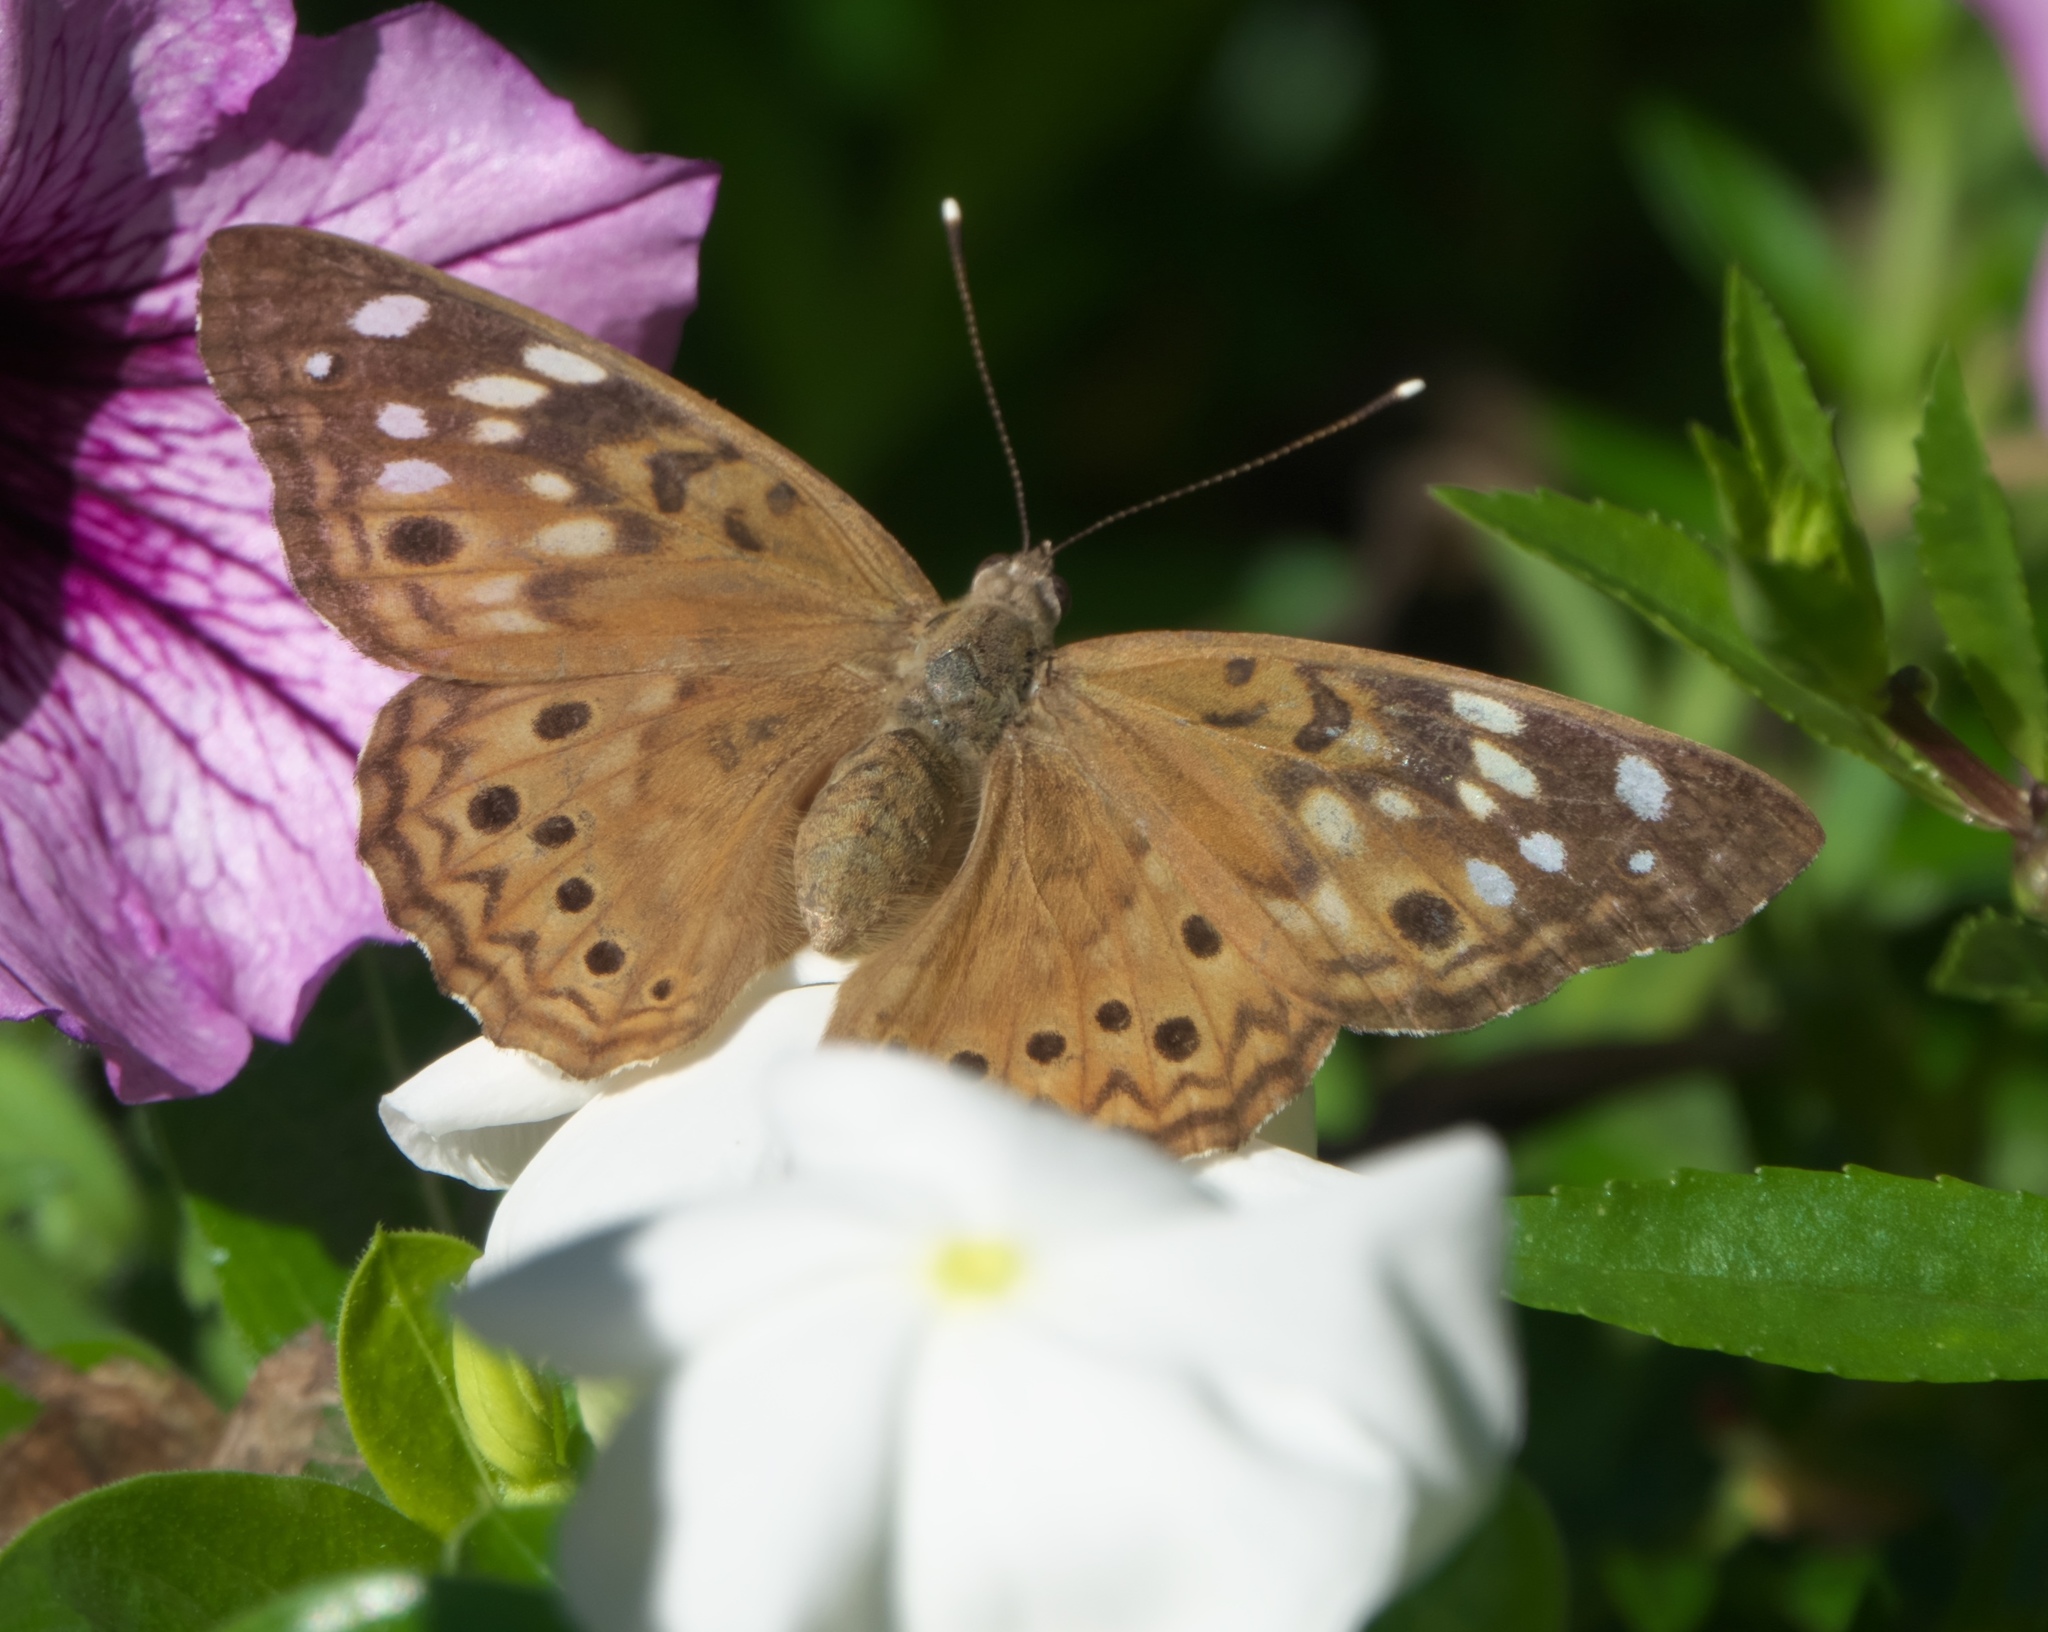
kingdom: Animalia
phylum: Arthropoda
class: Insecta
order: Lepidoptera
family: Nymphalidae
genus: Asterocampa
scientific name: Asterocampa celtis
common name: Hackberry emperor
